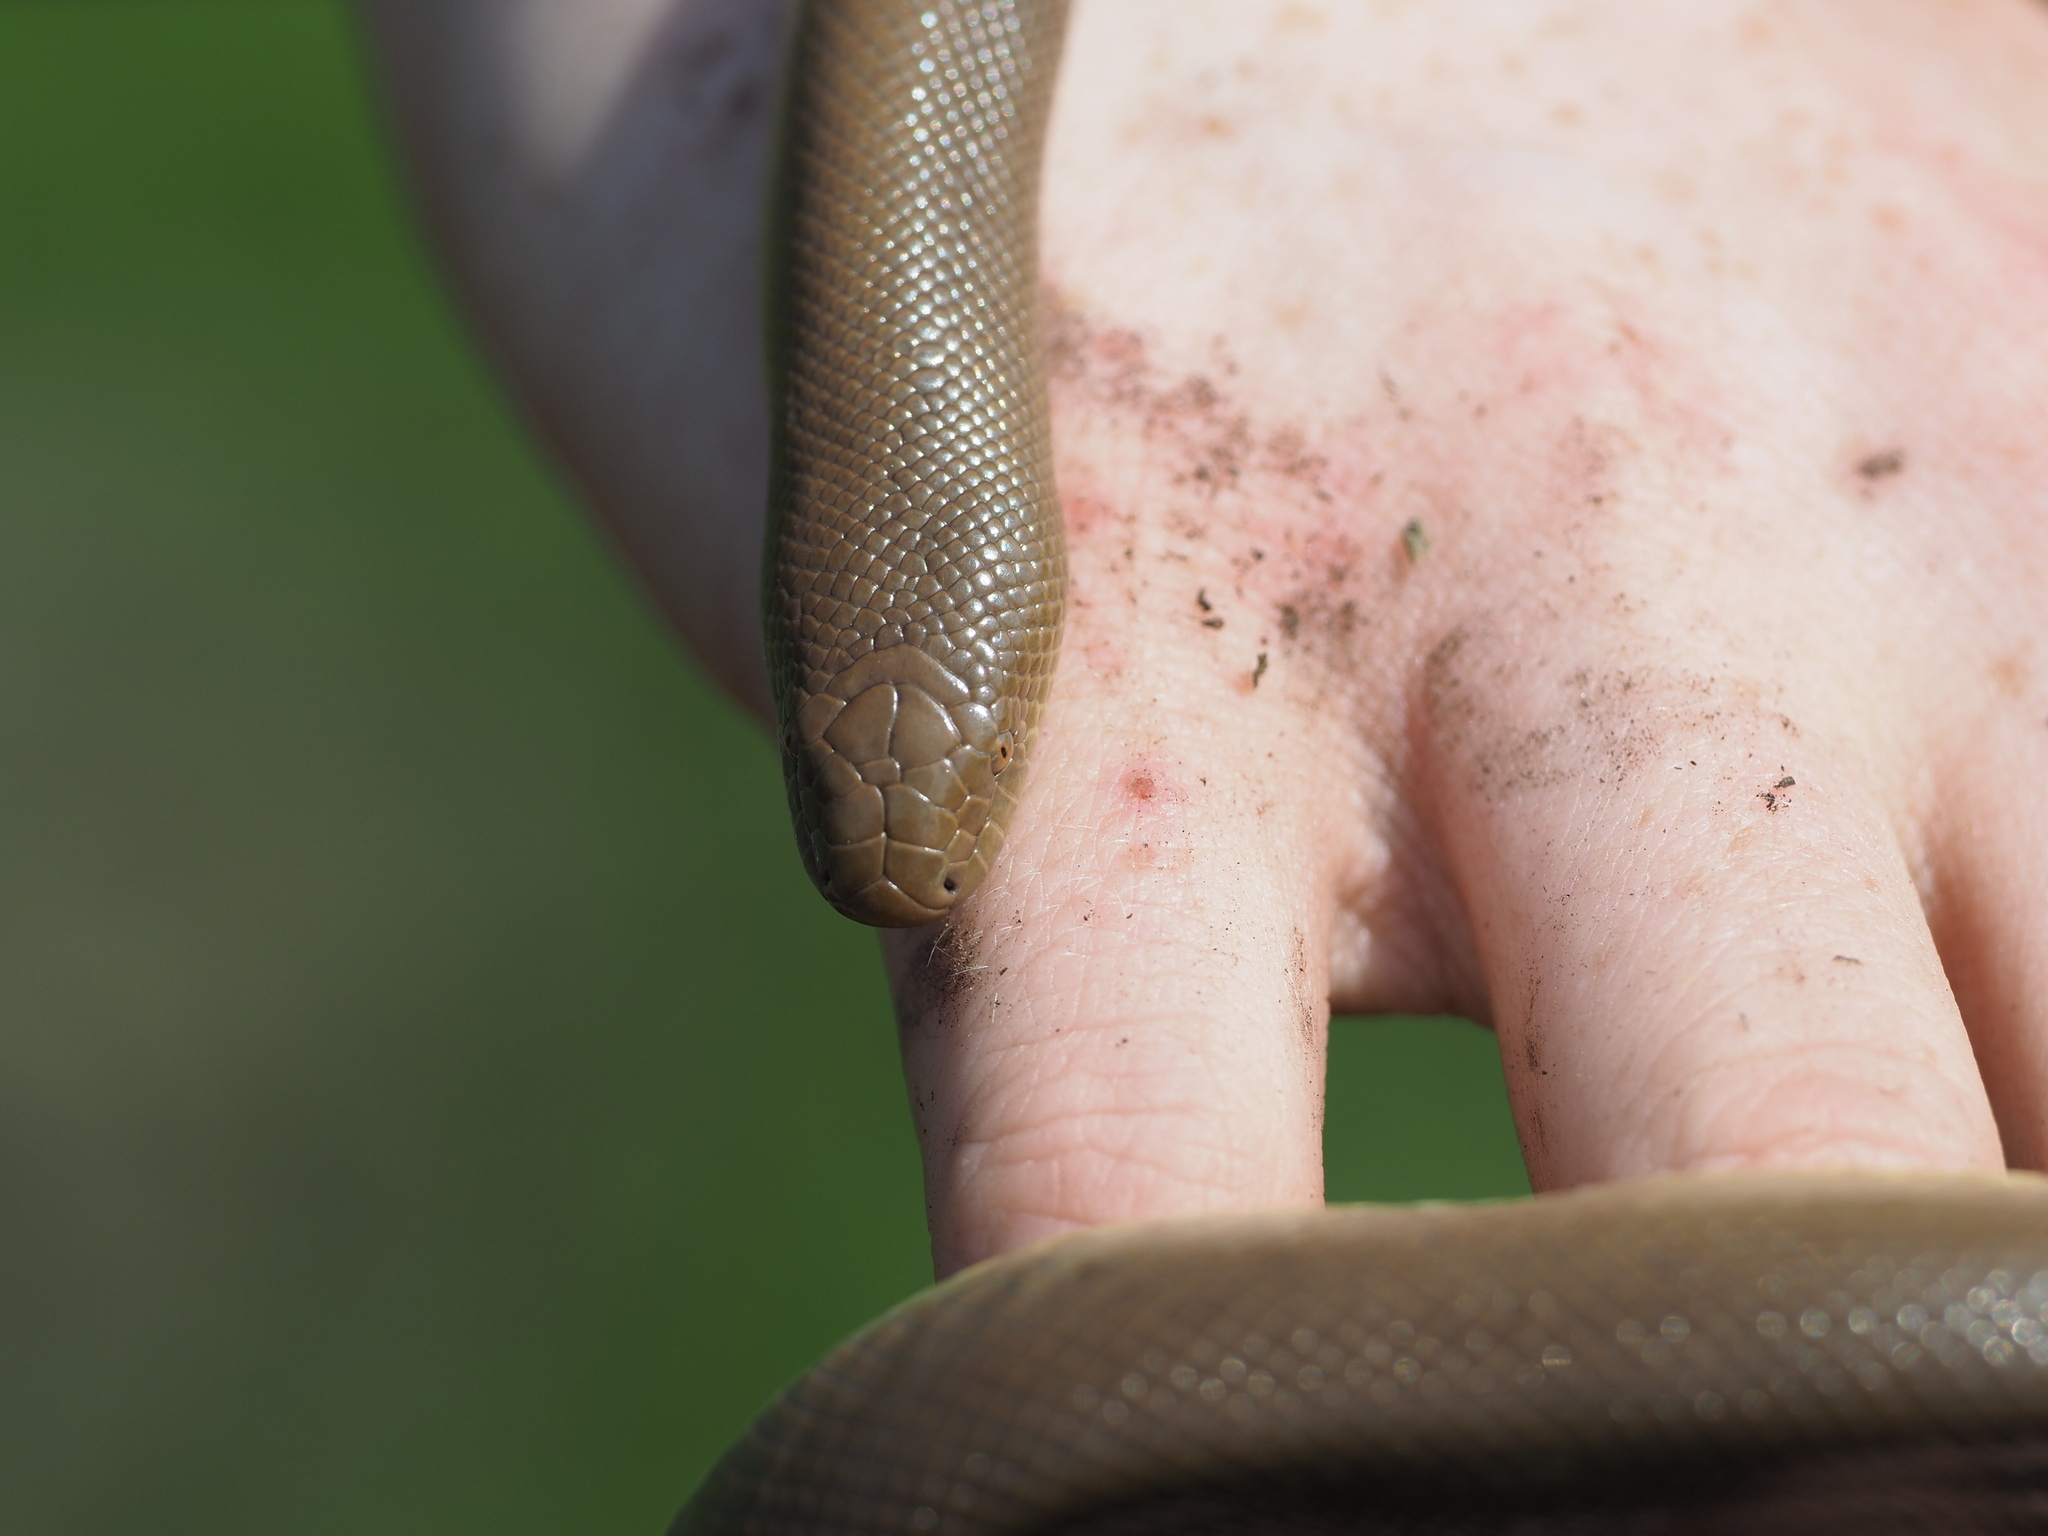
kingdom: Animalia
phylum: Chordata
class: Squamata
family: Boidae
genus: Charina
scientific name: Charina bottae
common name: Northern rubber boa
